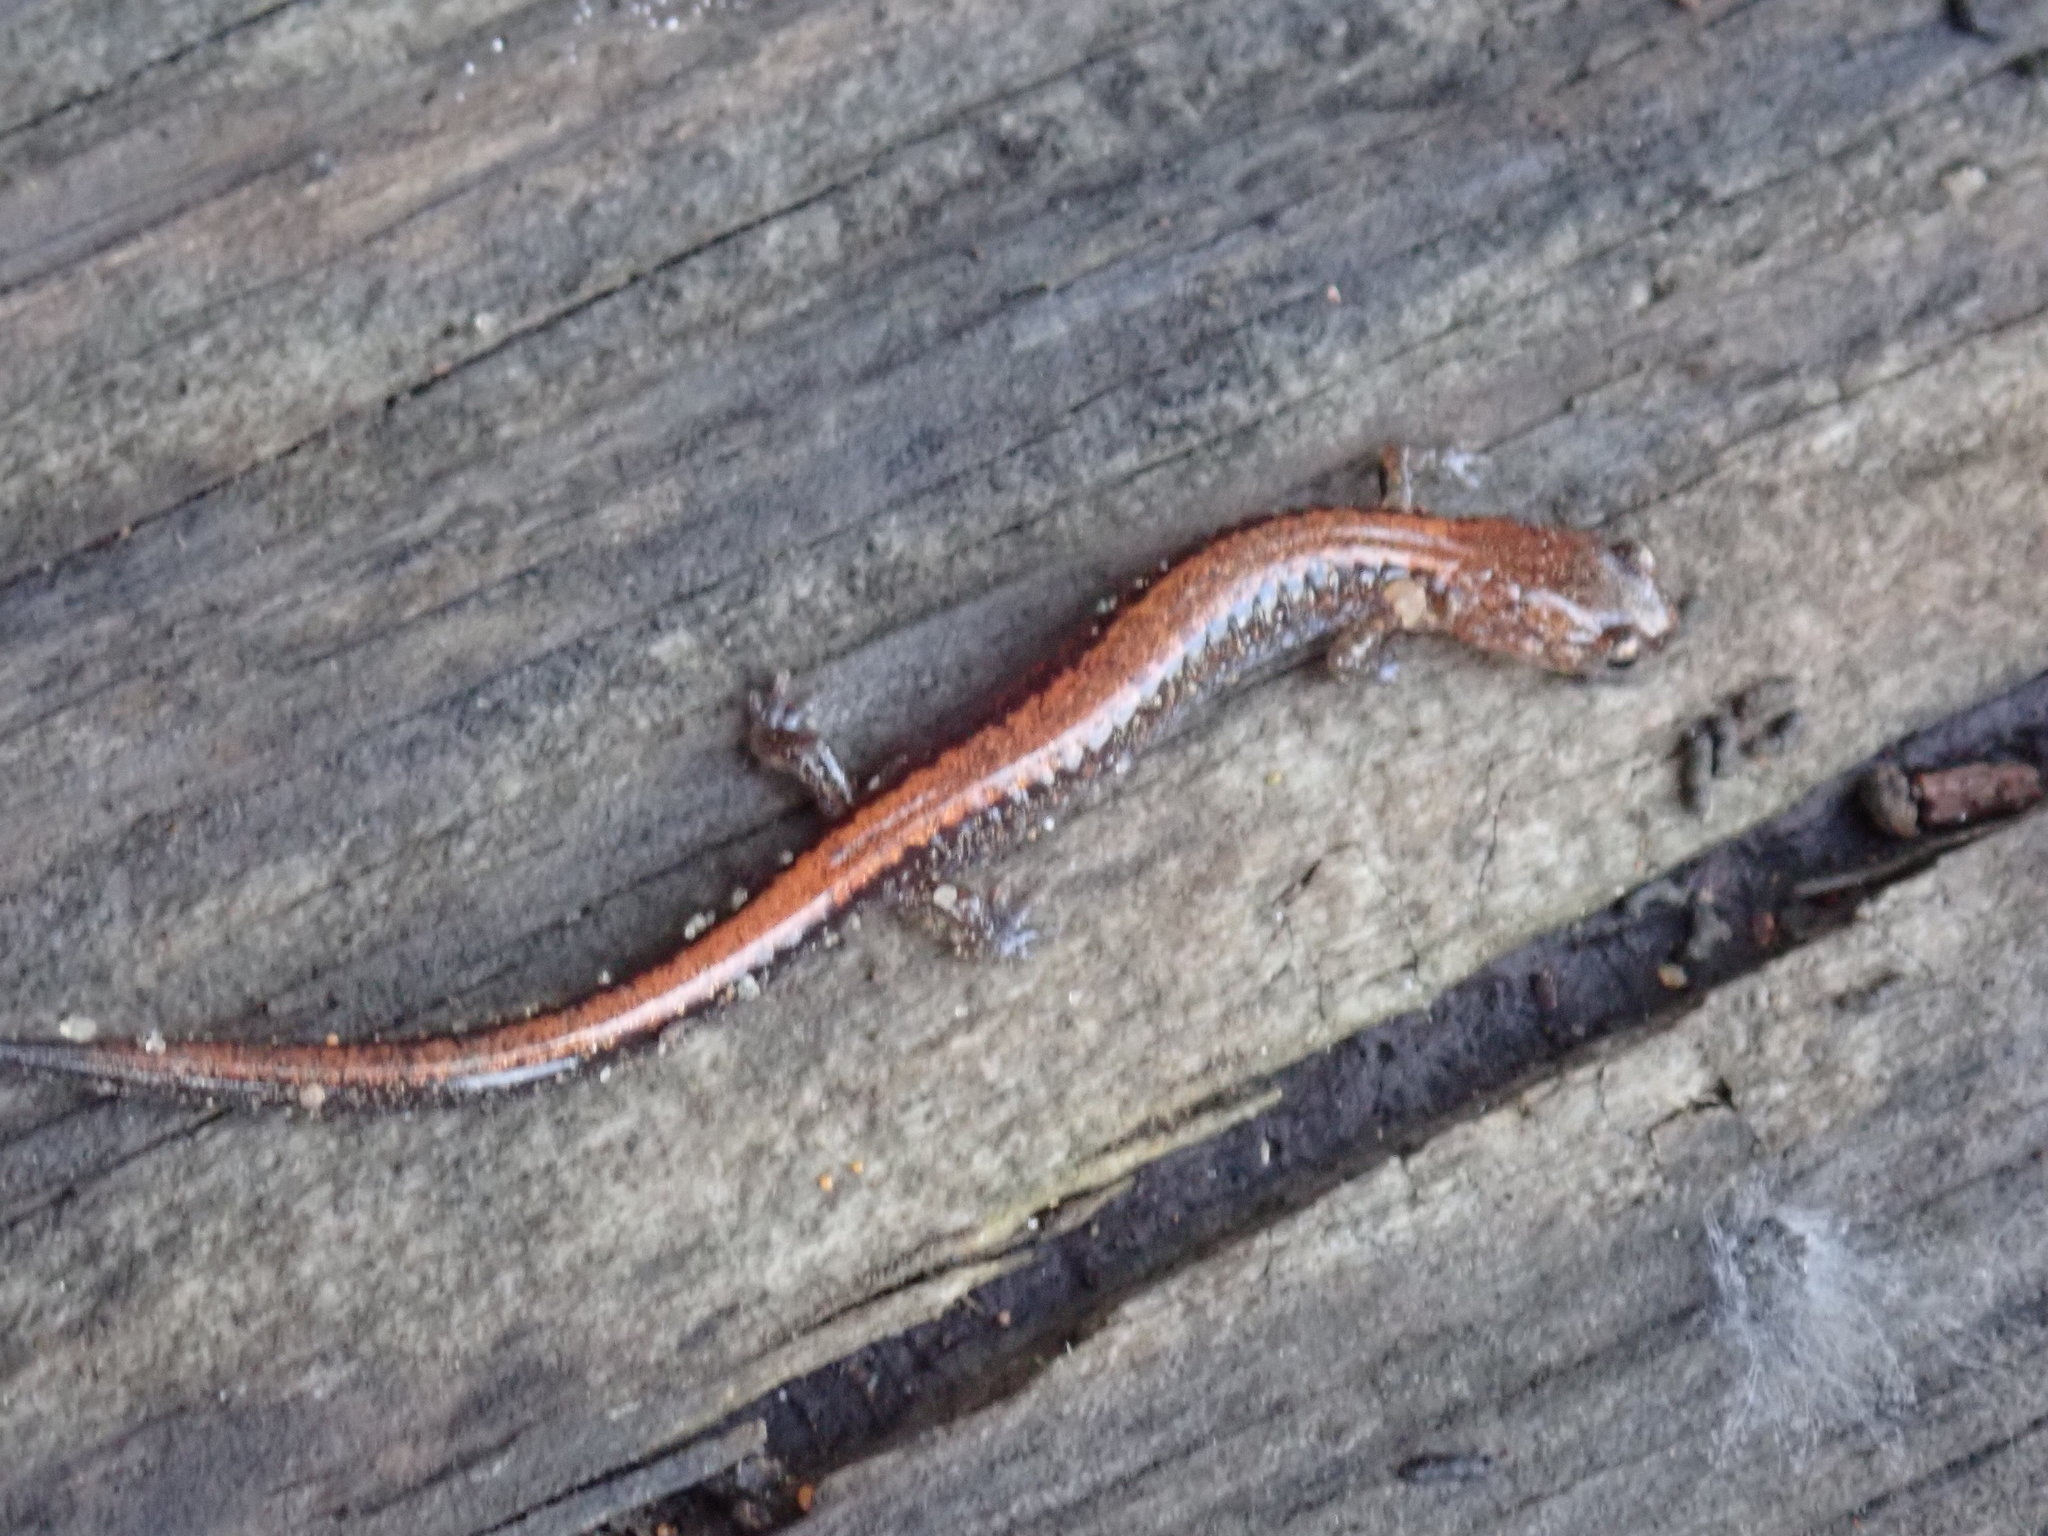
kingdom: Animalia
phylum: Chordata
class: Amphibia
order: Caudata
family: Plethodontidae
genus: Plethodon
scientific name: Plethodon cinereus
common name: Redback salamander
